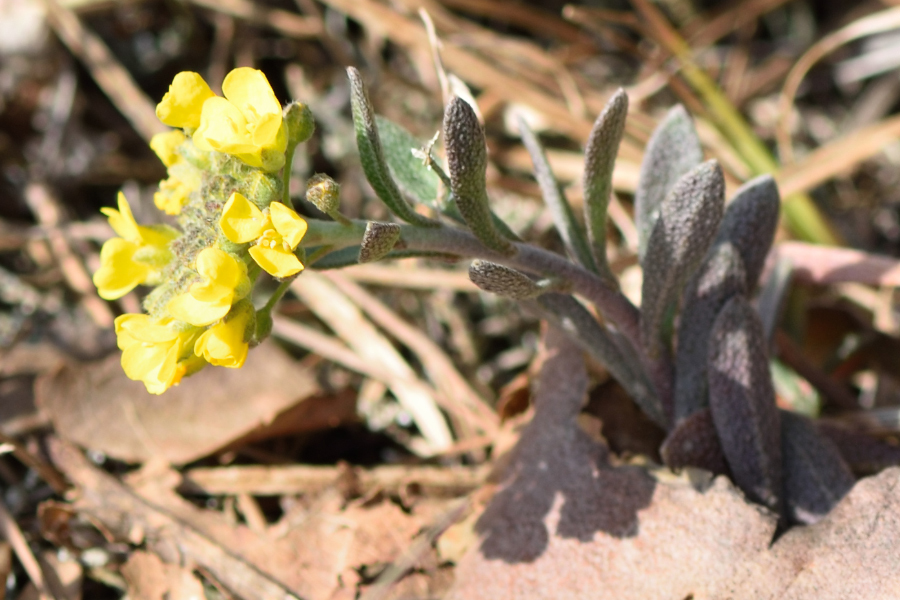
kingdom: Plantae
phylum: Tracheophyta
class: Magnoliopsida
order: Brassicales
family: Brassicaceae
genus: Alyssum
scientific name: Alyssum gmelinii
